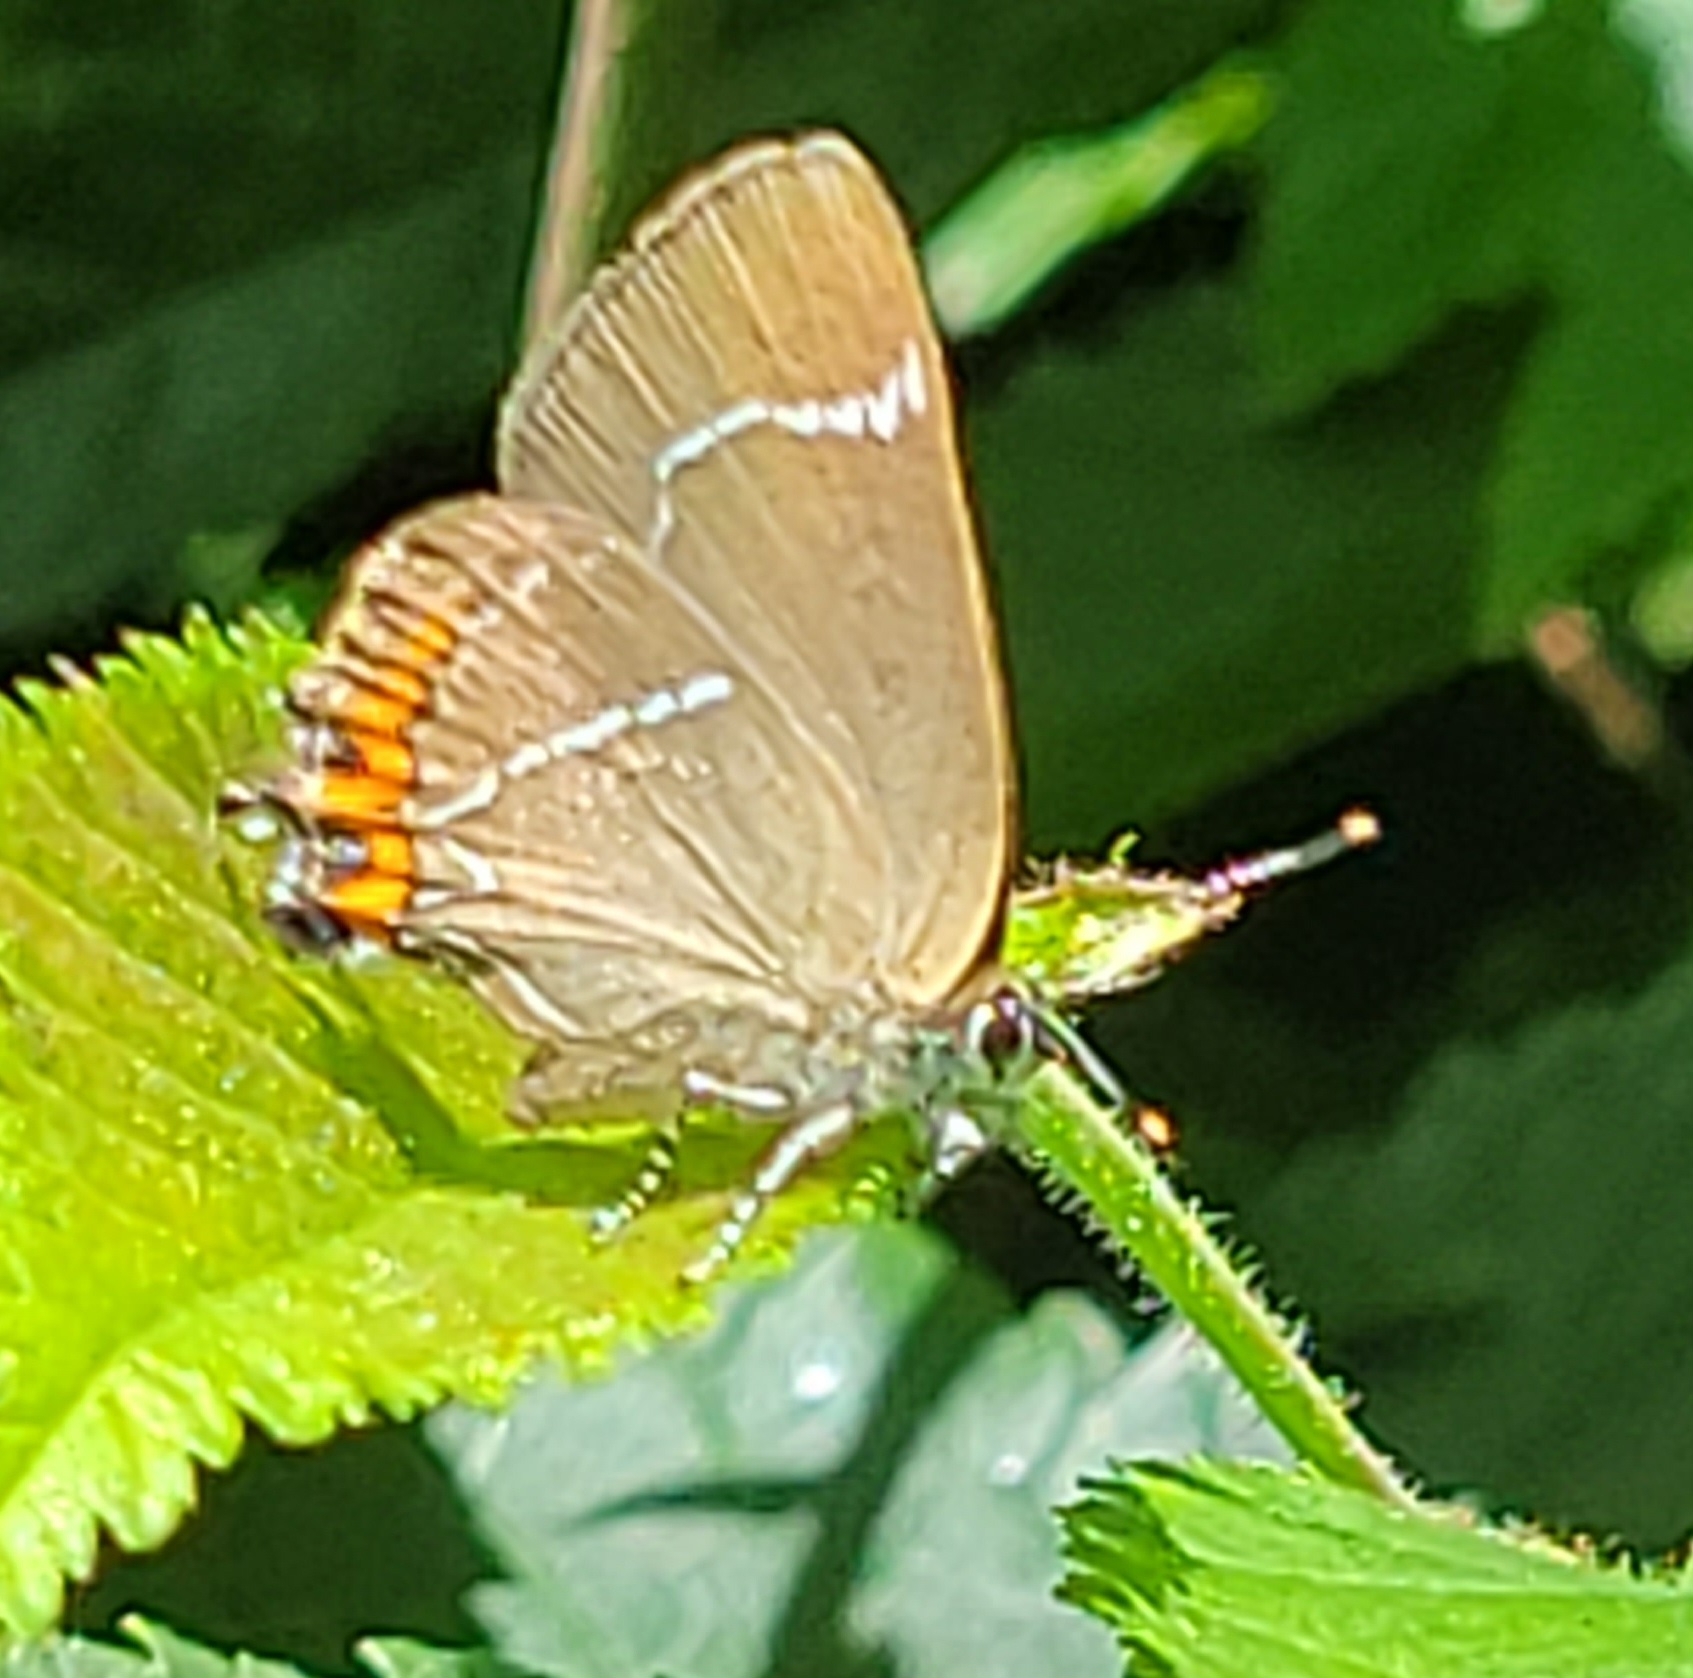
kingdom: Animalia
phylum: Arthropoda
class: Insecta
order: Lepidoptera
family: Lycaenidae
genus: Satyrium
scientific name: Satyrium w-album
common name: White-letter hairstreak
